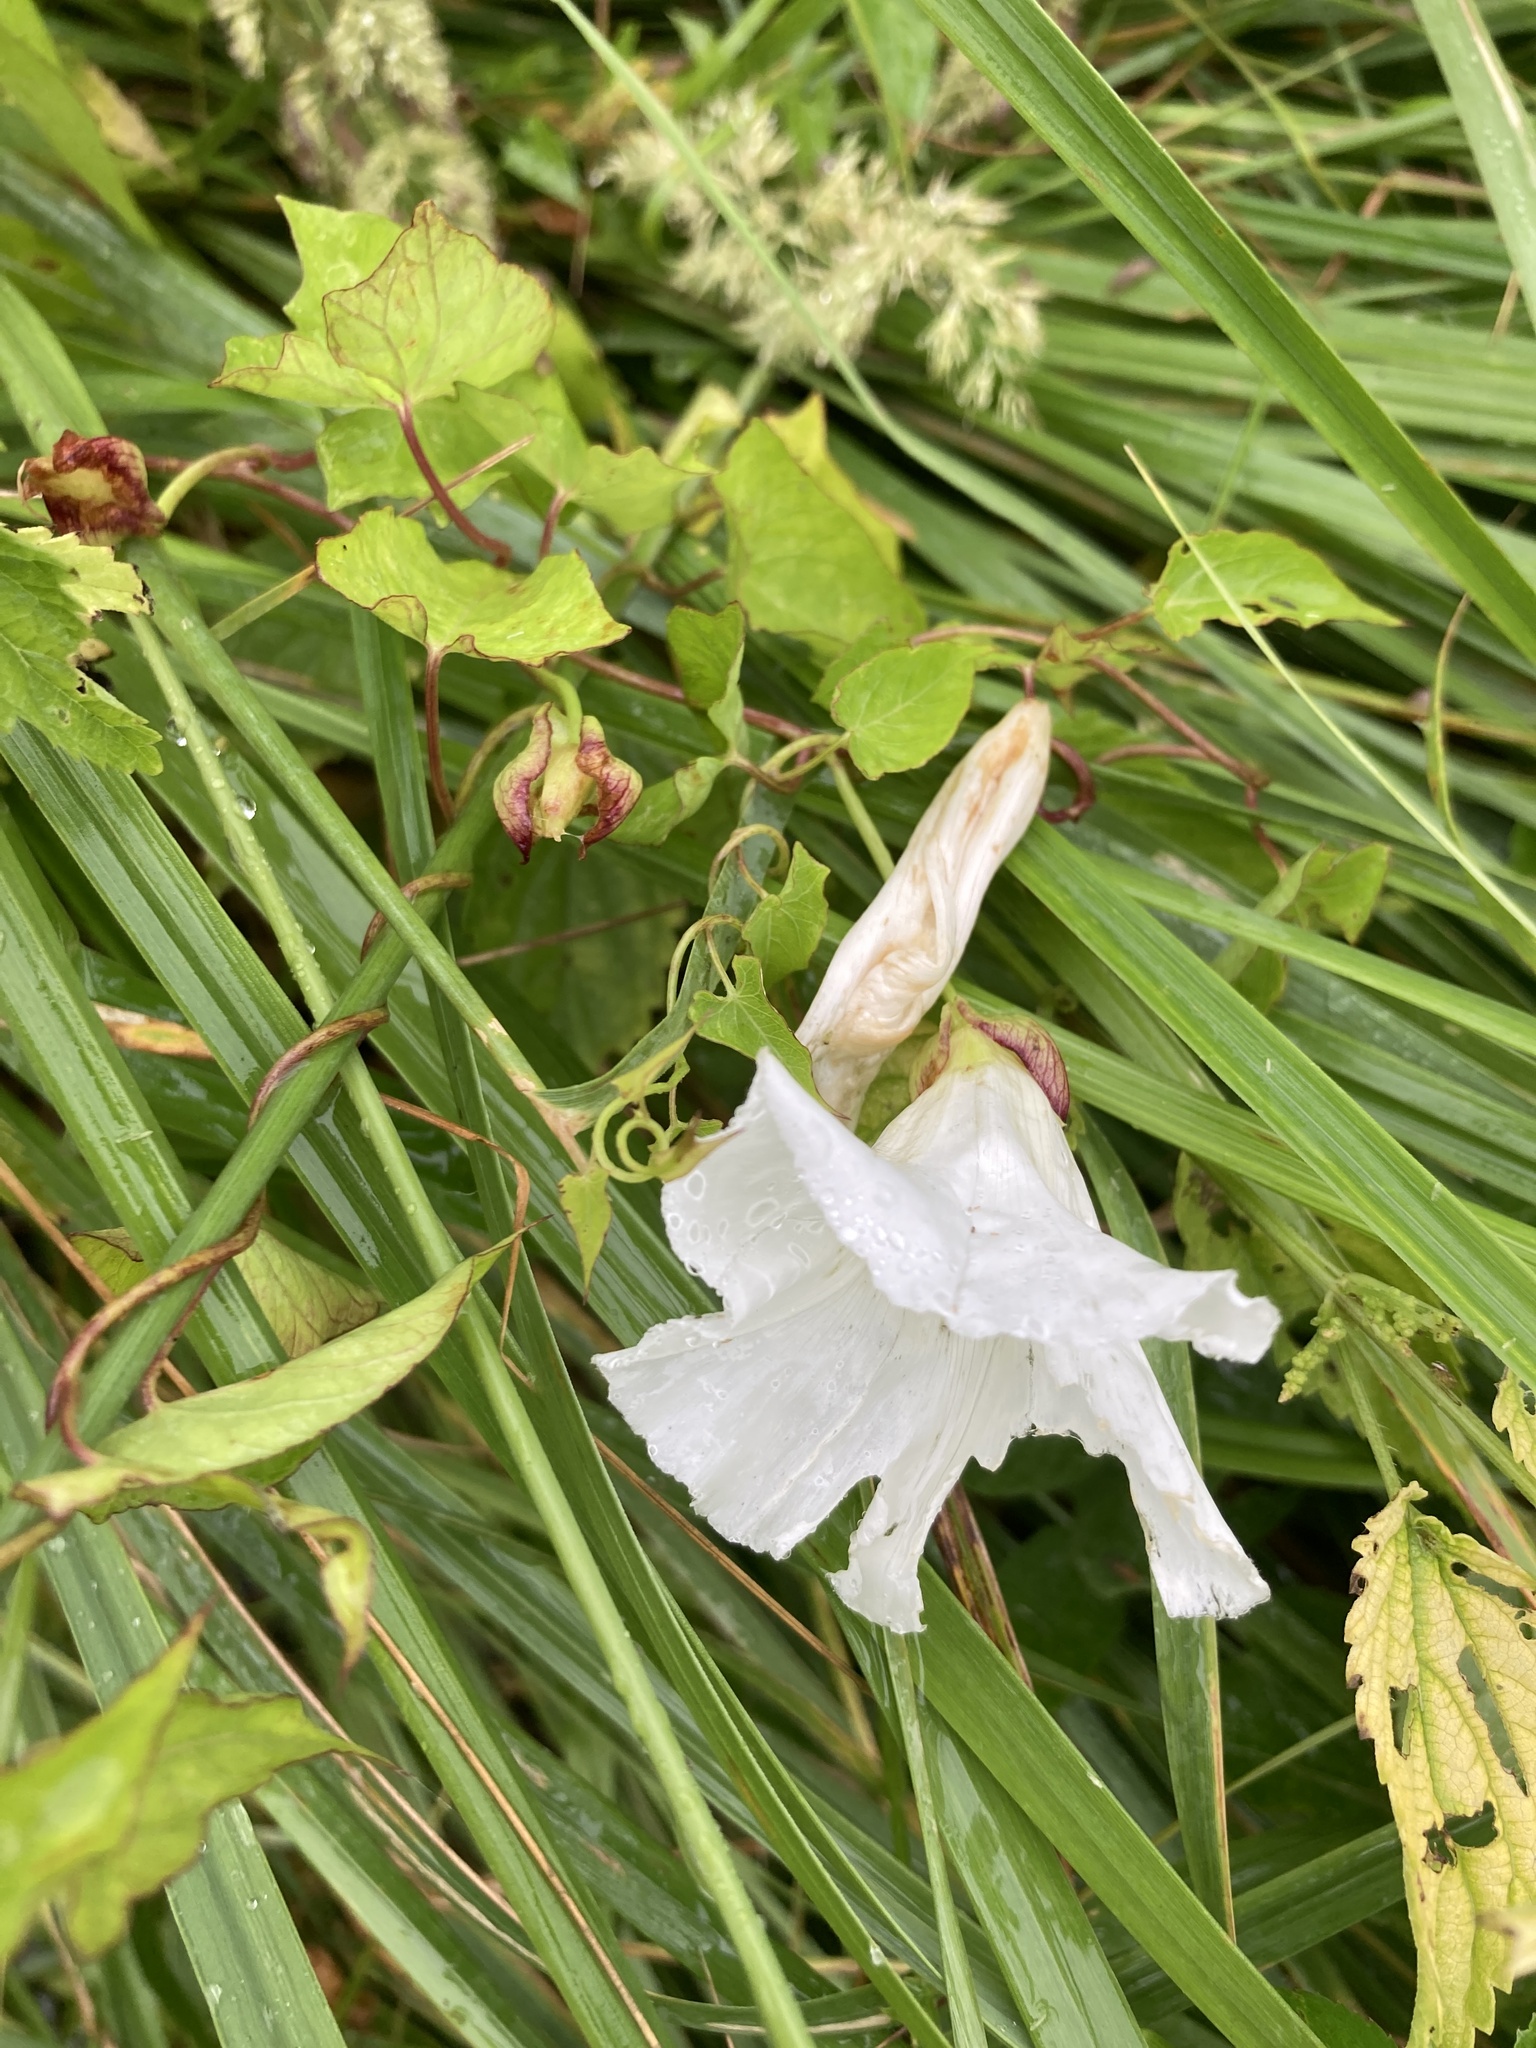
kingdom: Plantae
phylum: Tracheophyta
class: Magnoliopsida
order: Solanales
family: Convolvulaceae
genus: Calystegia
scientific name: Calystegia sepium
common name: Hedge bindweed
